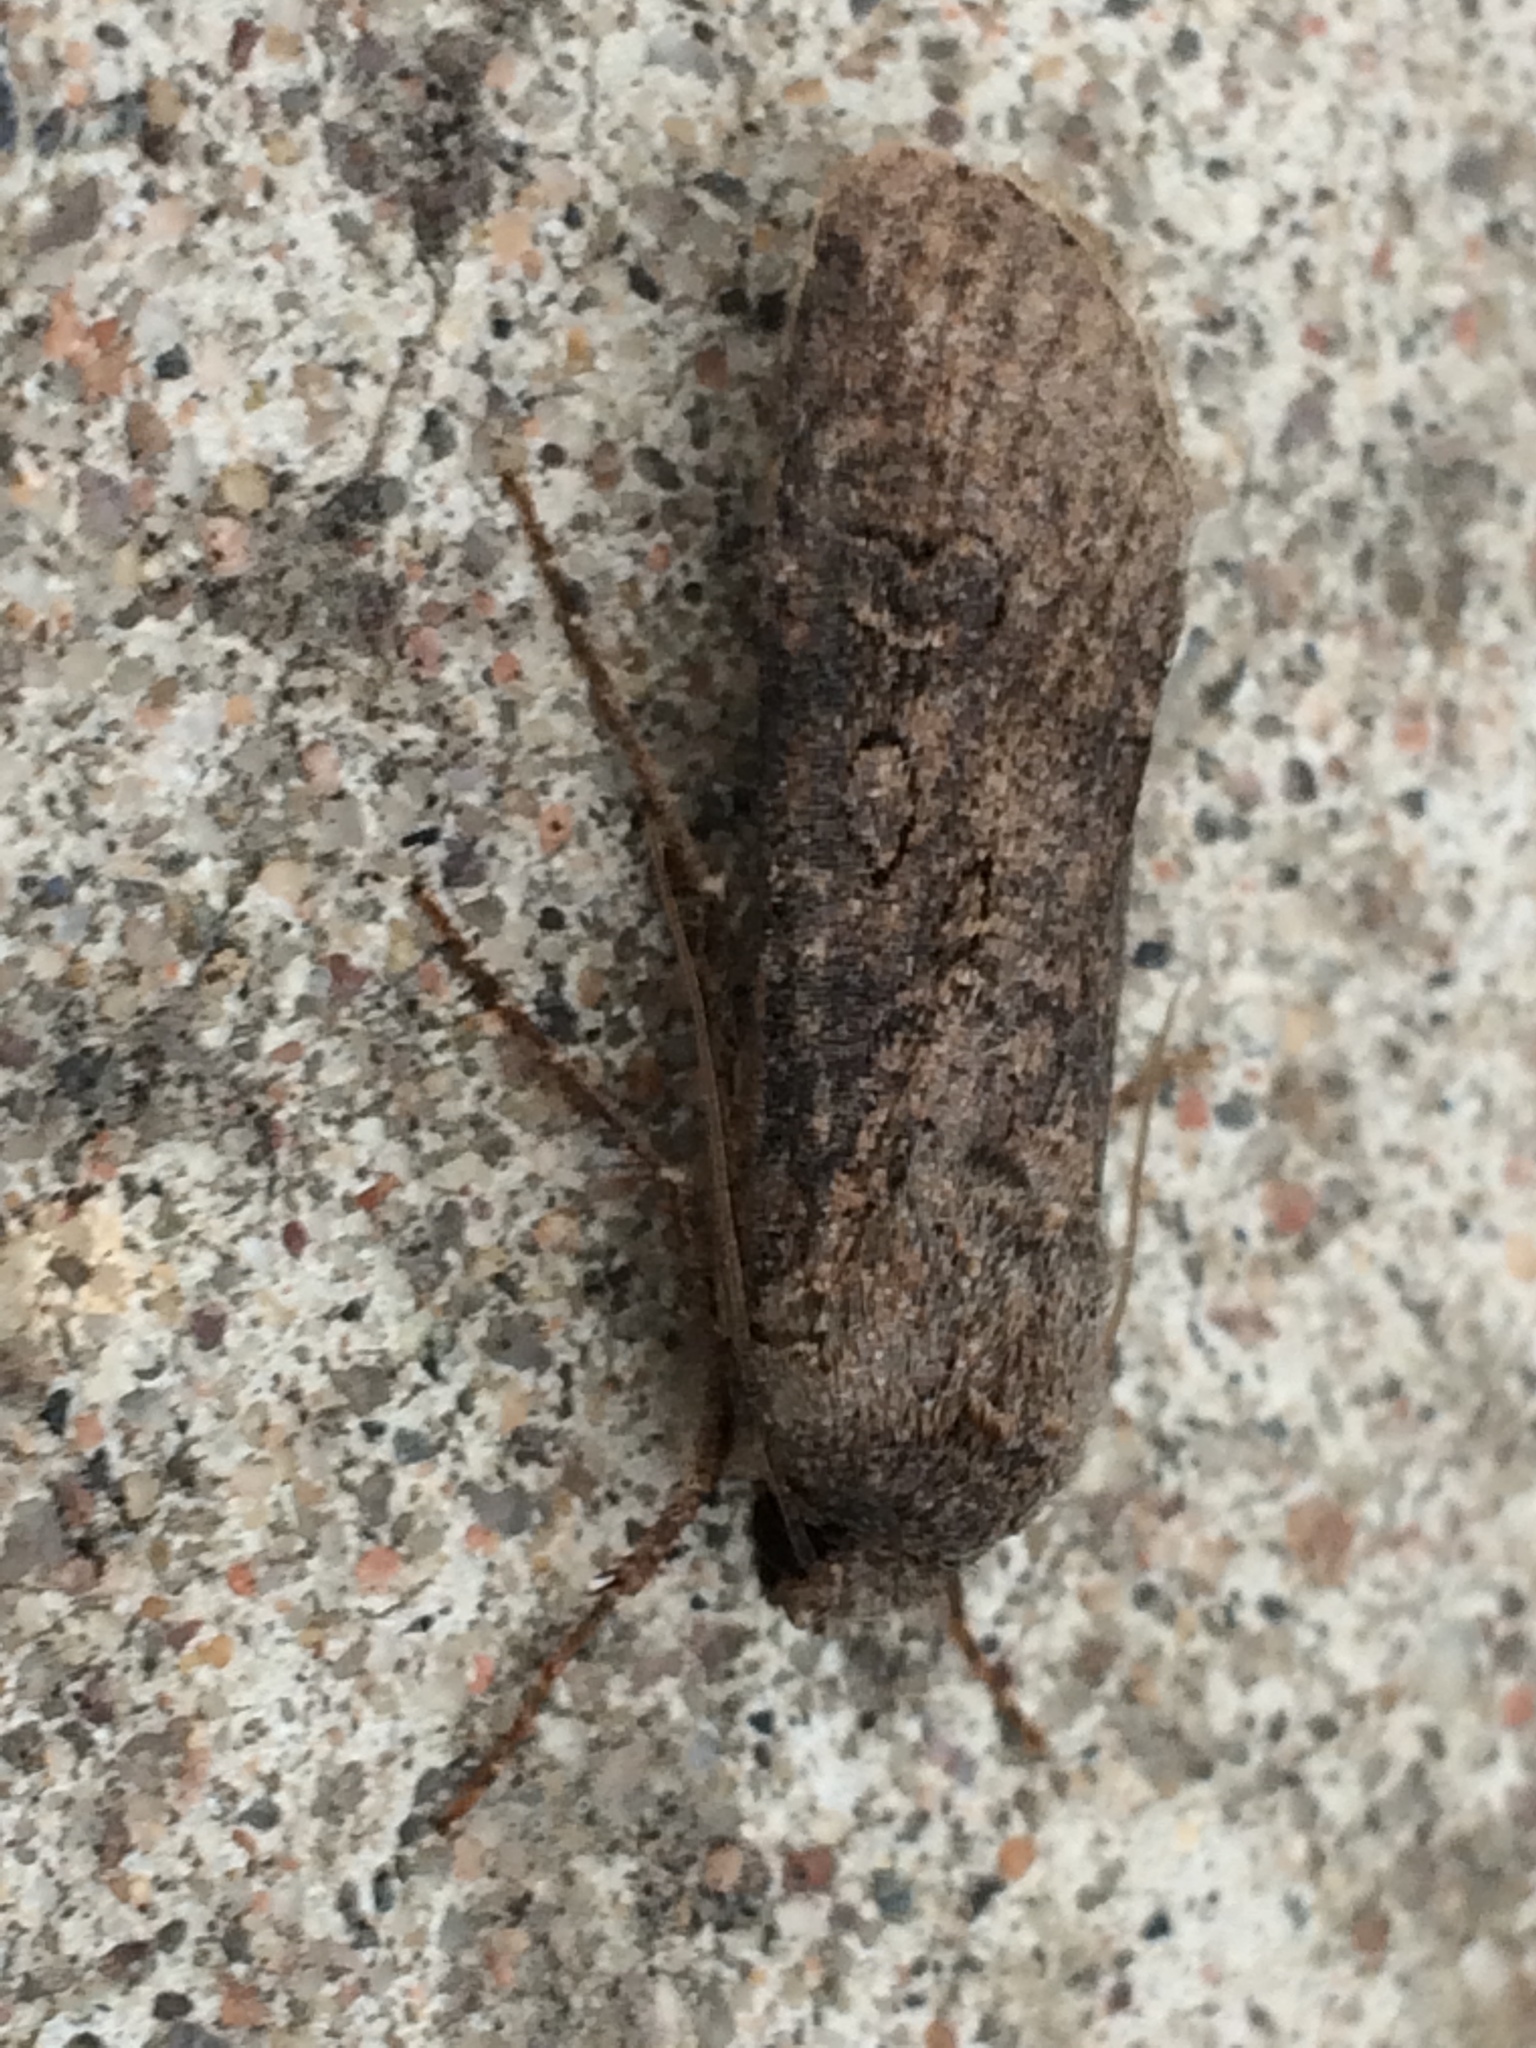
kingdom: Animalia
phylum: Arthropoda
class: Insecta
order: Lepidoptera
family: Noctuidae
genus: Agrotis
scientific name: Agrotis segetum
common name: Turnip moth
